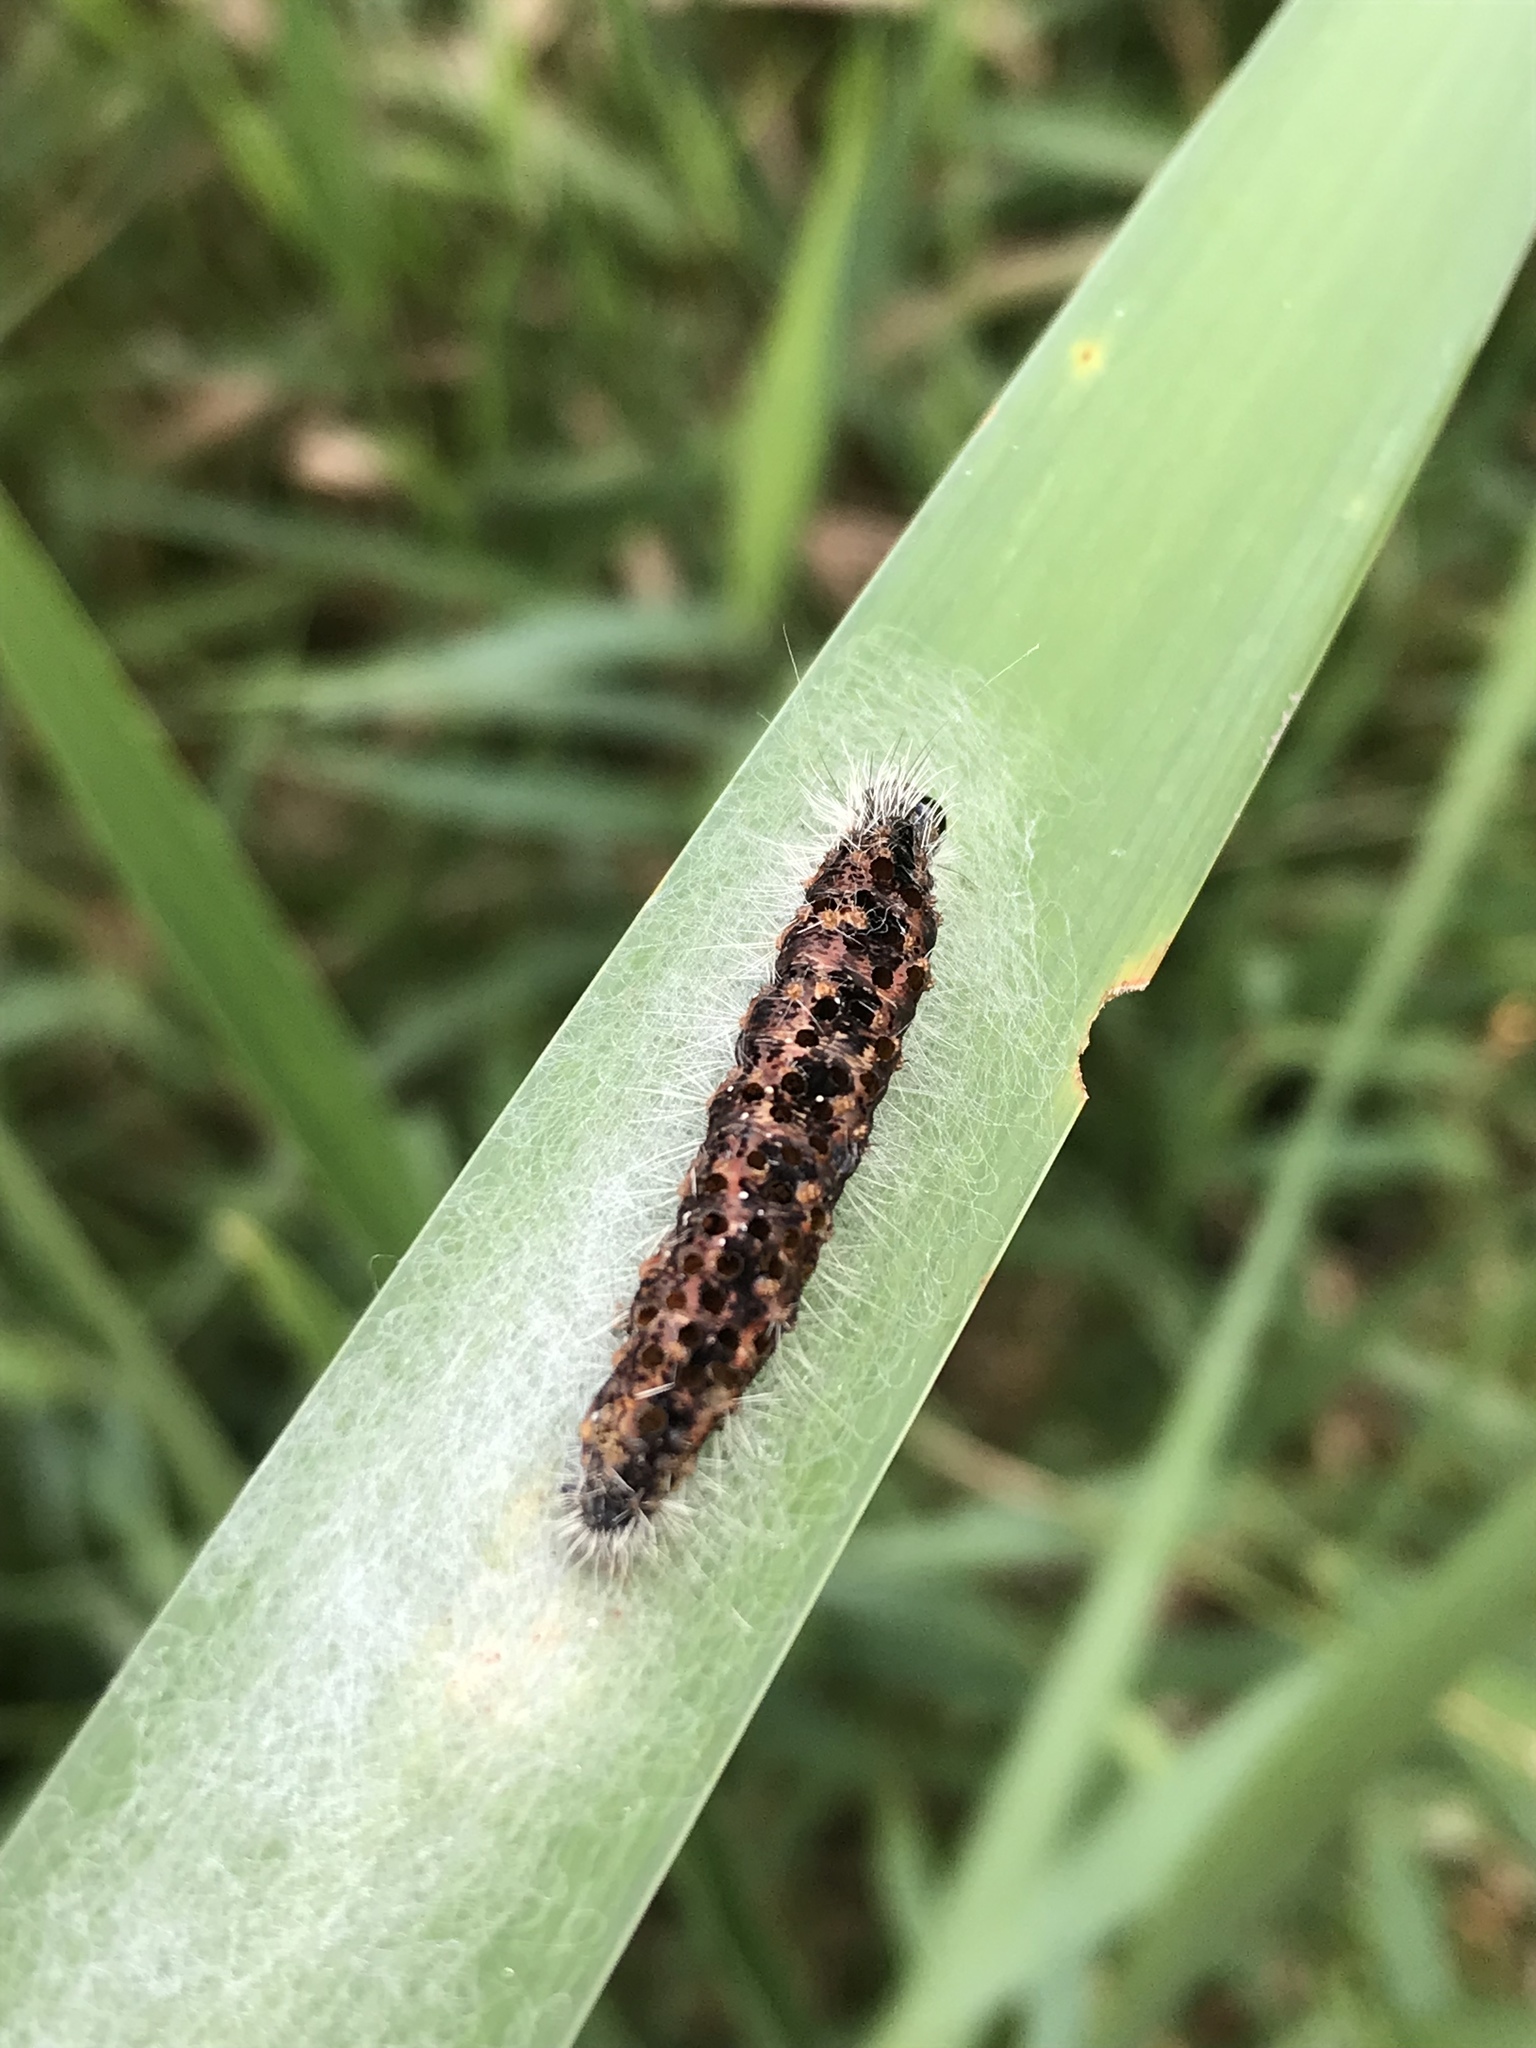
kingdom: Animalia
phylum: Arthropoda
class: Insecta
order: Lepidoptera
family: Noctuidae
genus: Acronicta
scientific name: Acronicta insularis
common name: Henry's marsh moth
